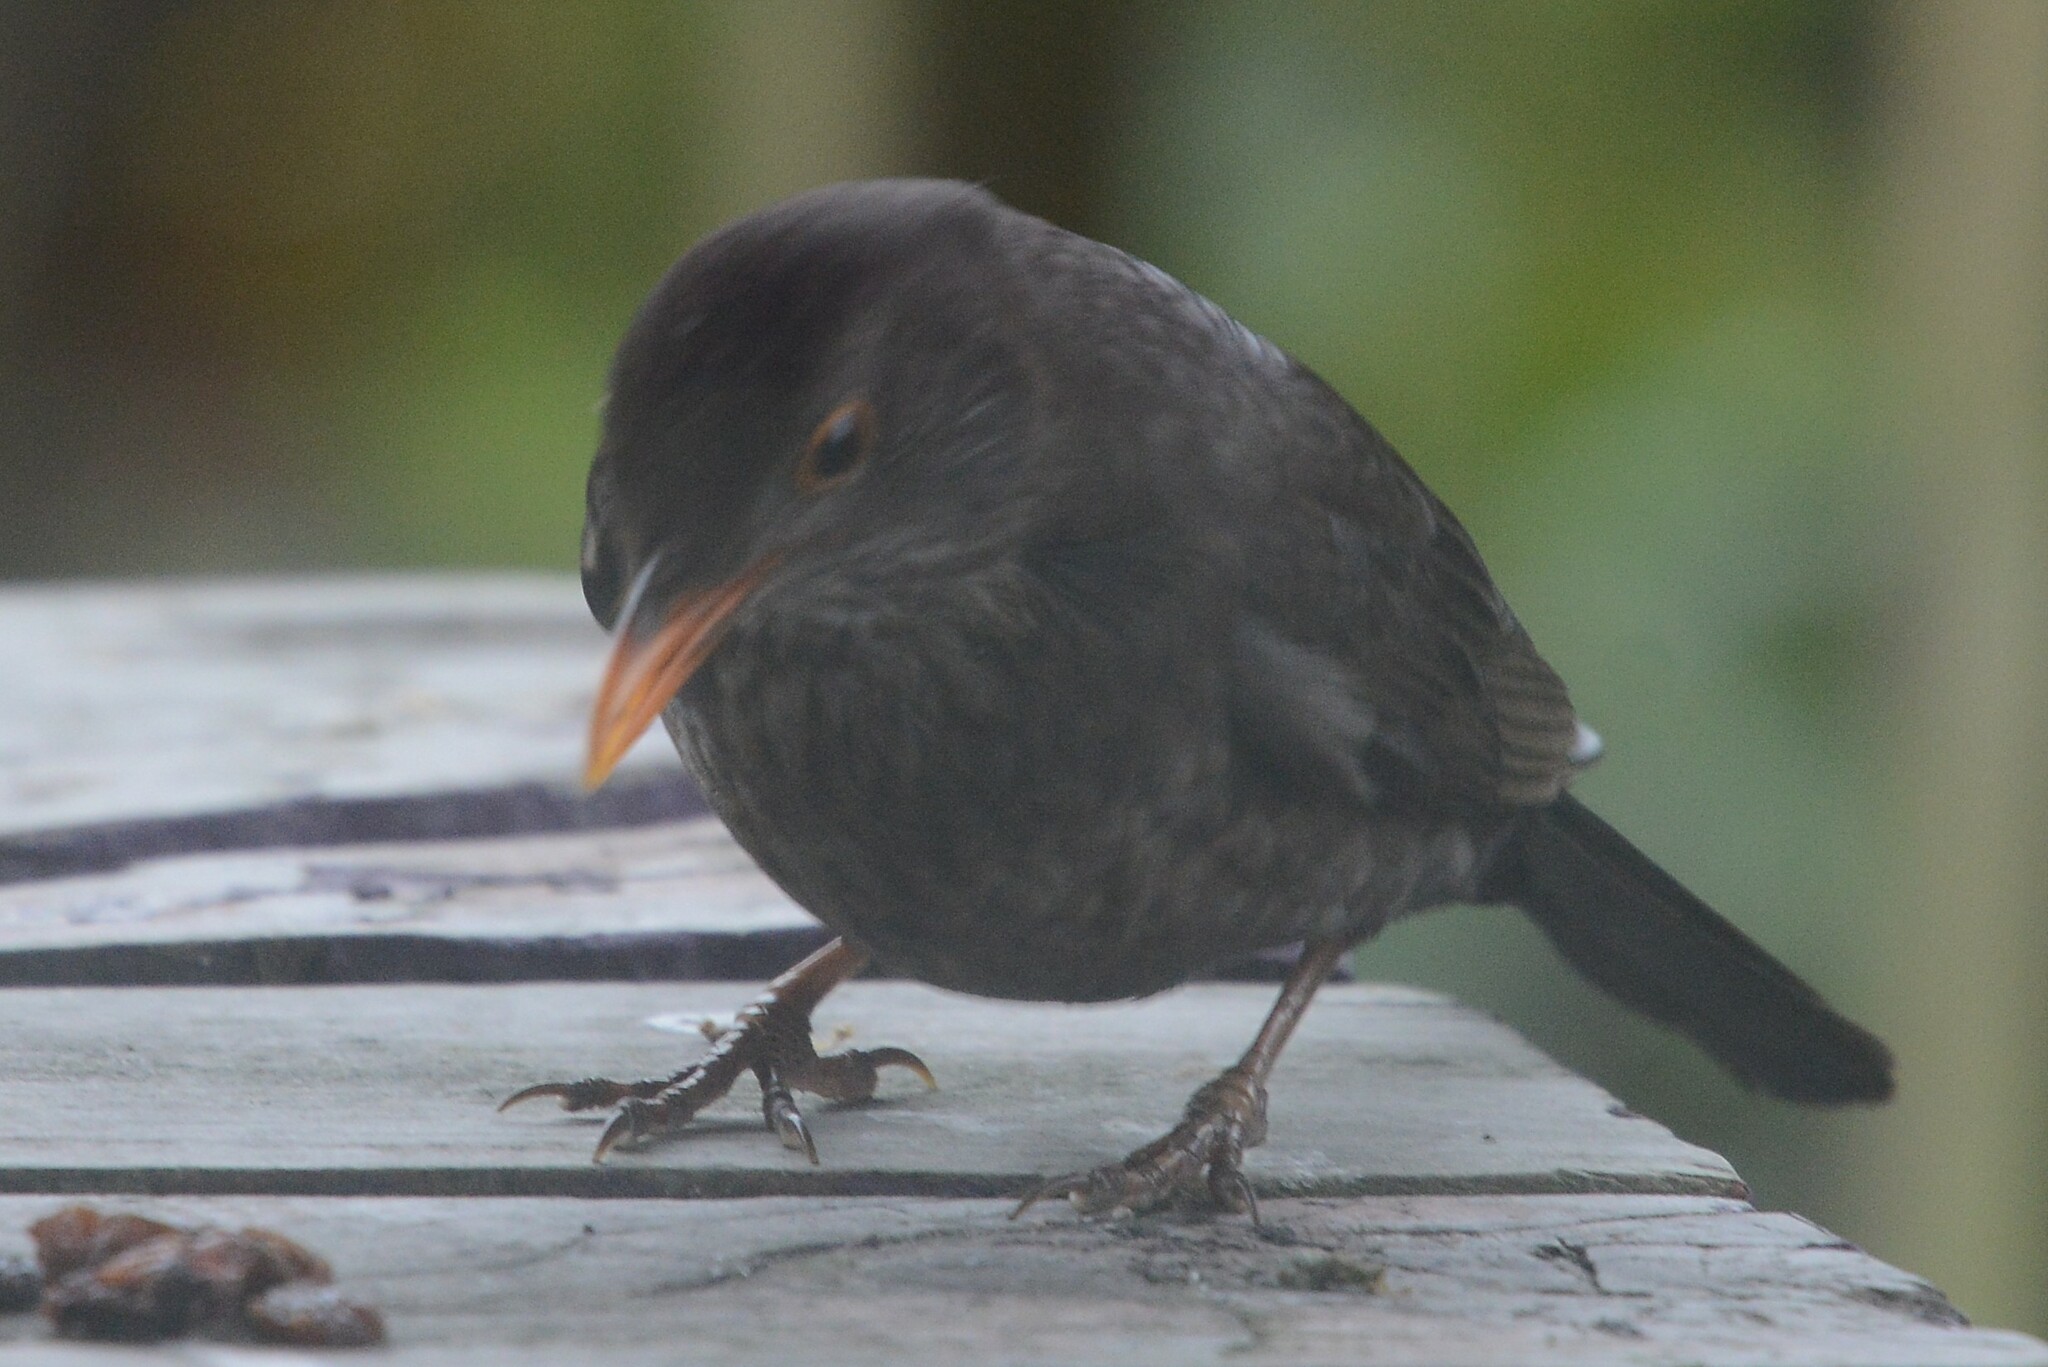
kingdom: Animalia
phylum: Chordata
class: Aves
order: Passeriformes
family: Turdidae
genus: Turdus
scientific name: Turdus merula
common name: Common blackbird
